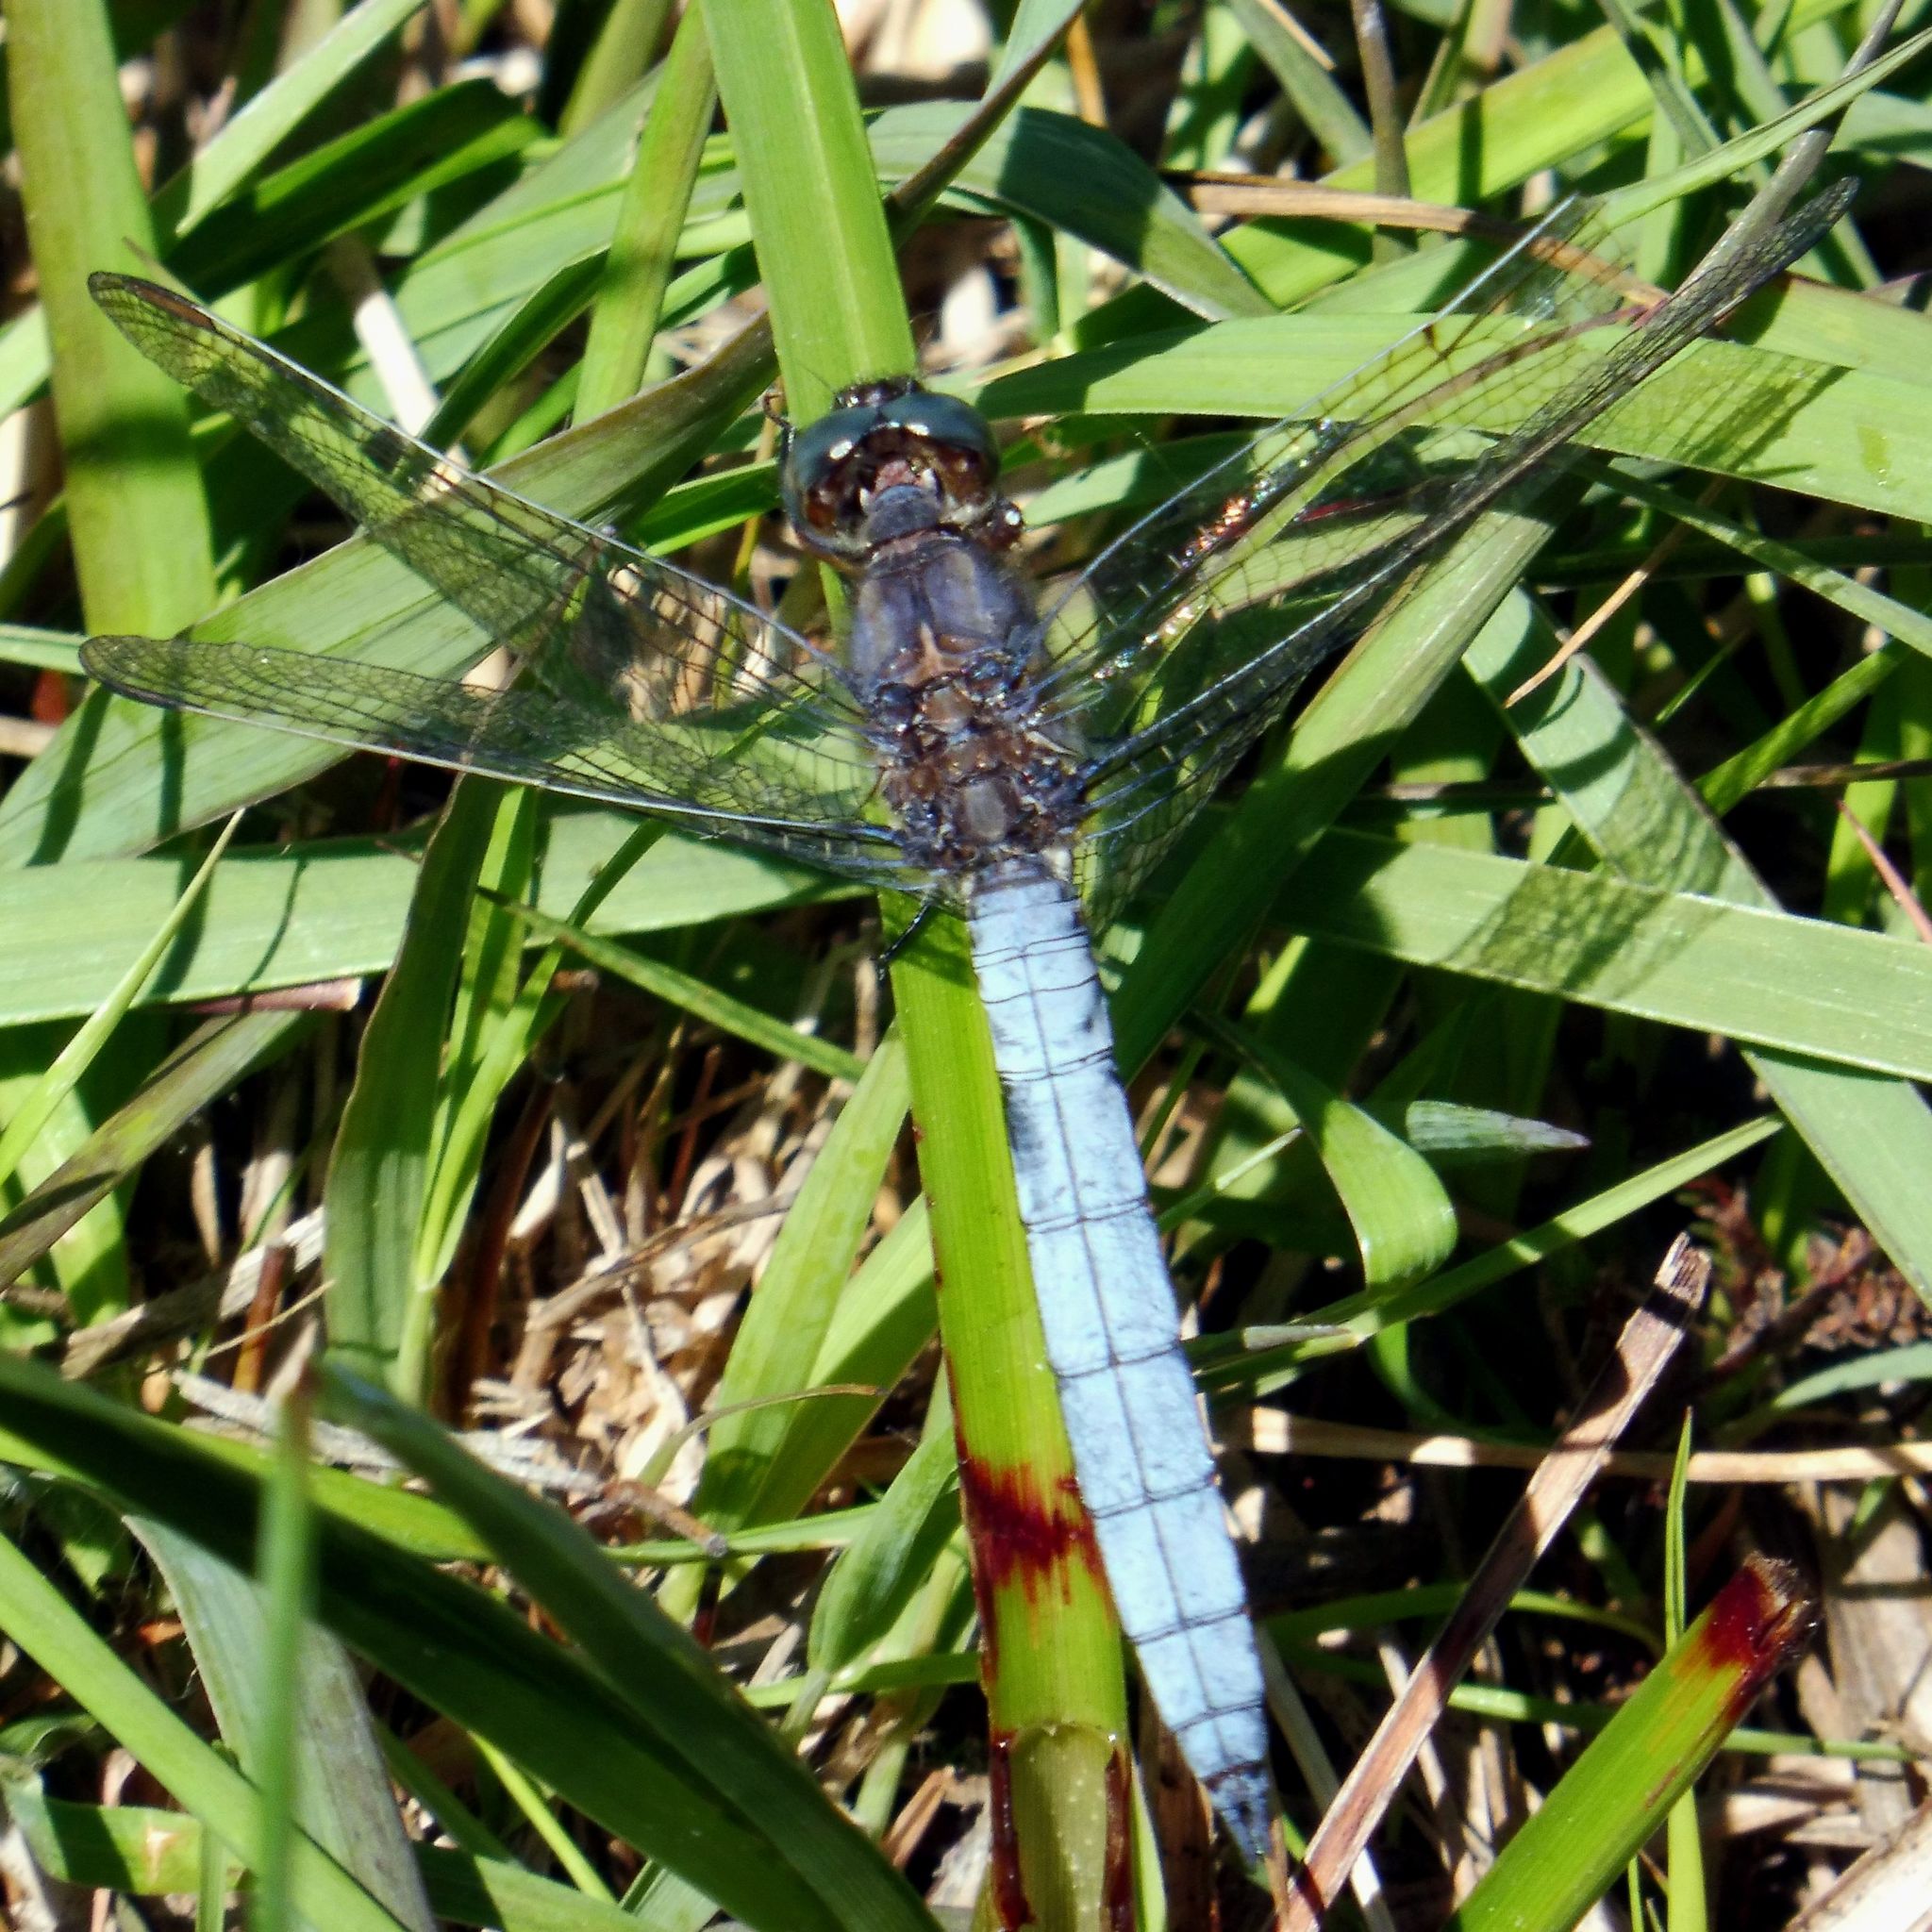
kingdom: Animalia
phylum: Arthropoda
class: Insecta
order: Odonata
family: Libellulidae
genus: Orthetrum
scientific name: Orthetrum coerulescens
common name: Keeled skimmer
